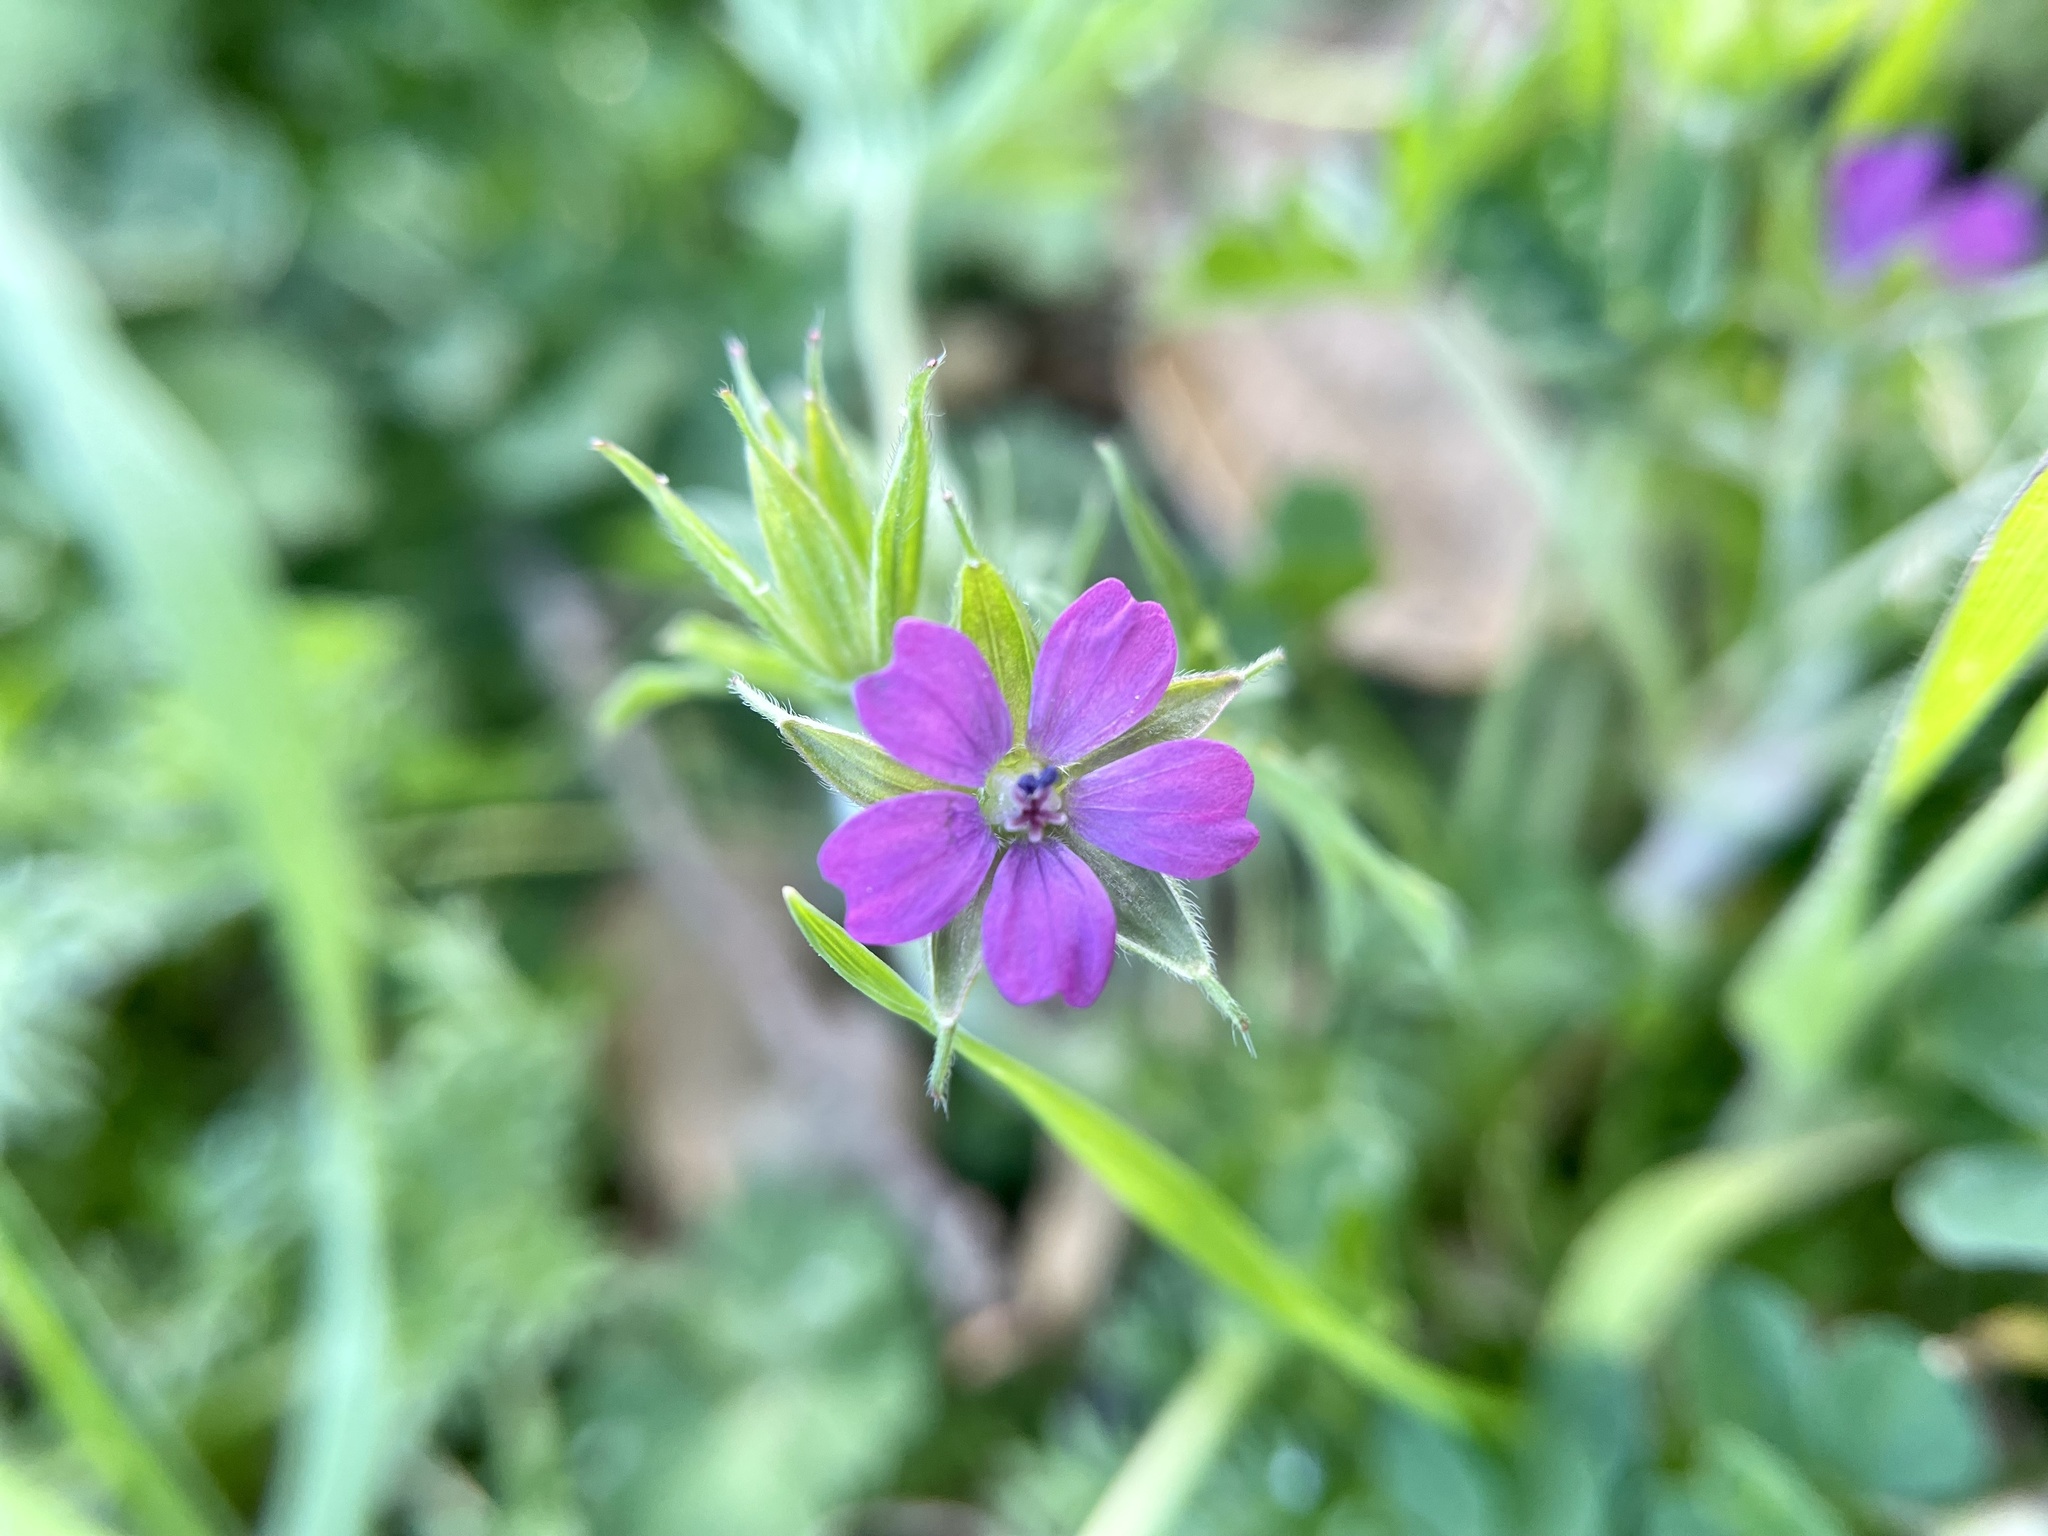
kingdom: Plantae
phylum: Tracheophyta
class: Magnoliopsida
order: Geraniales
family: Geraniaceae
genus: Geranium
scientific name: Geranium dissectum
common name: Cut-leaved crane's-bill
